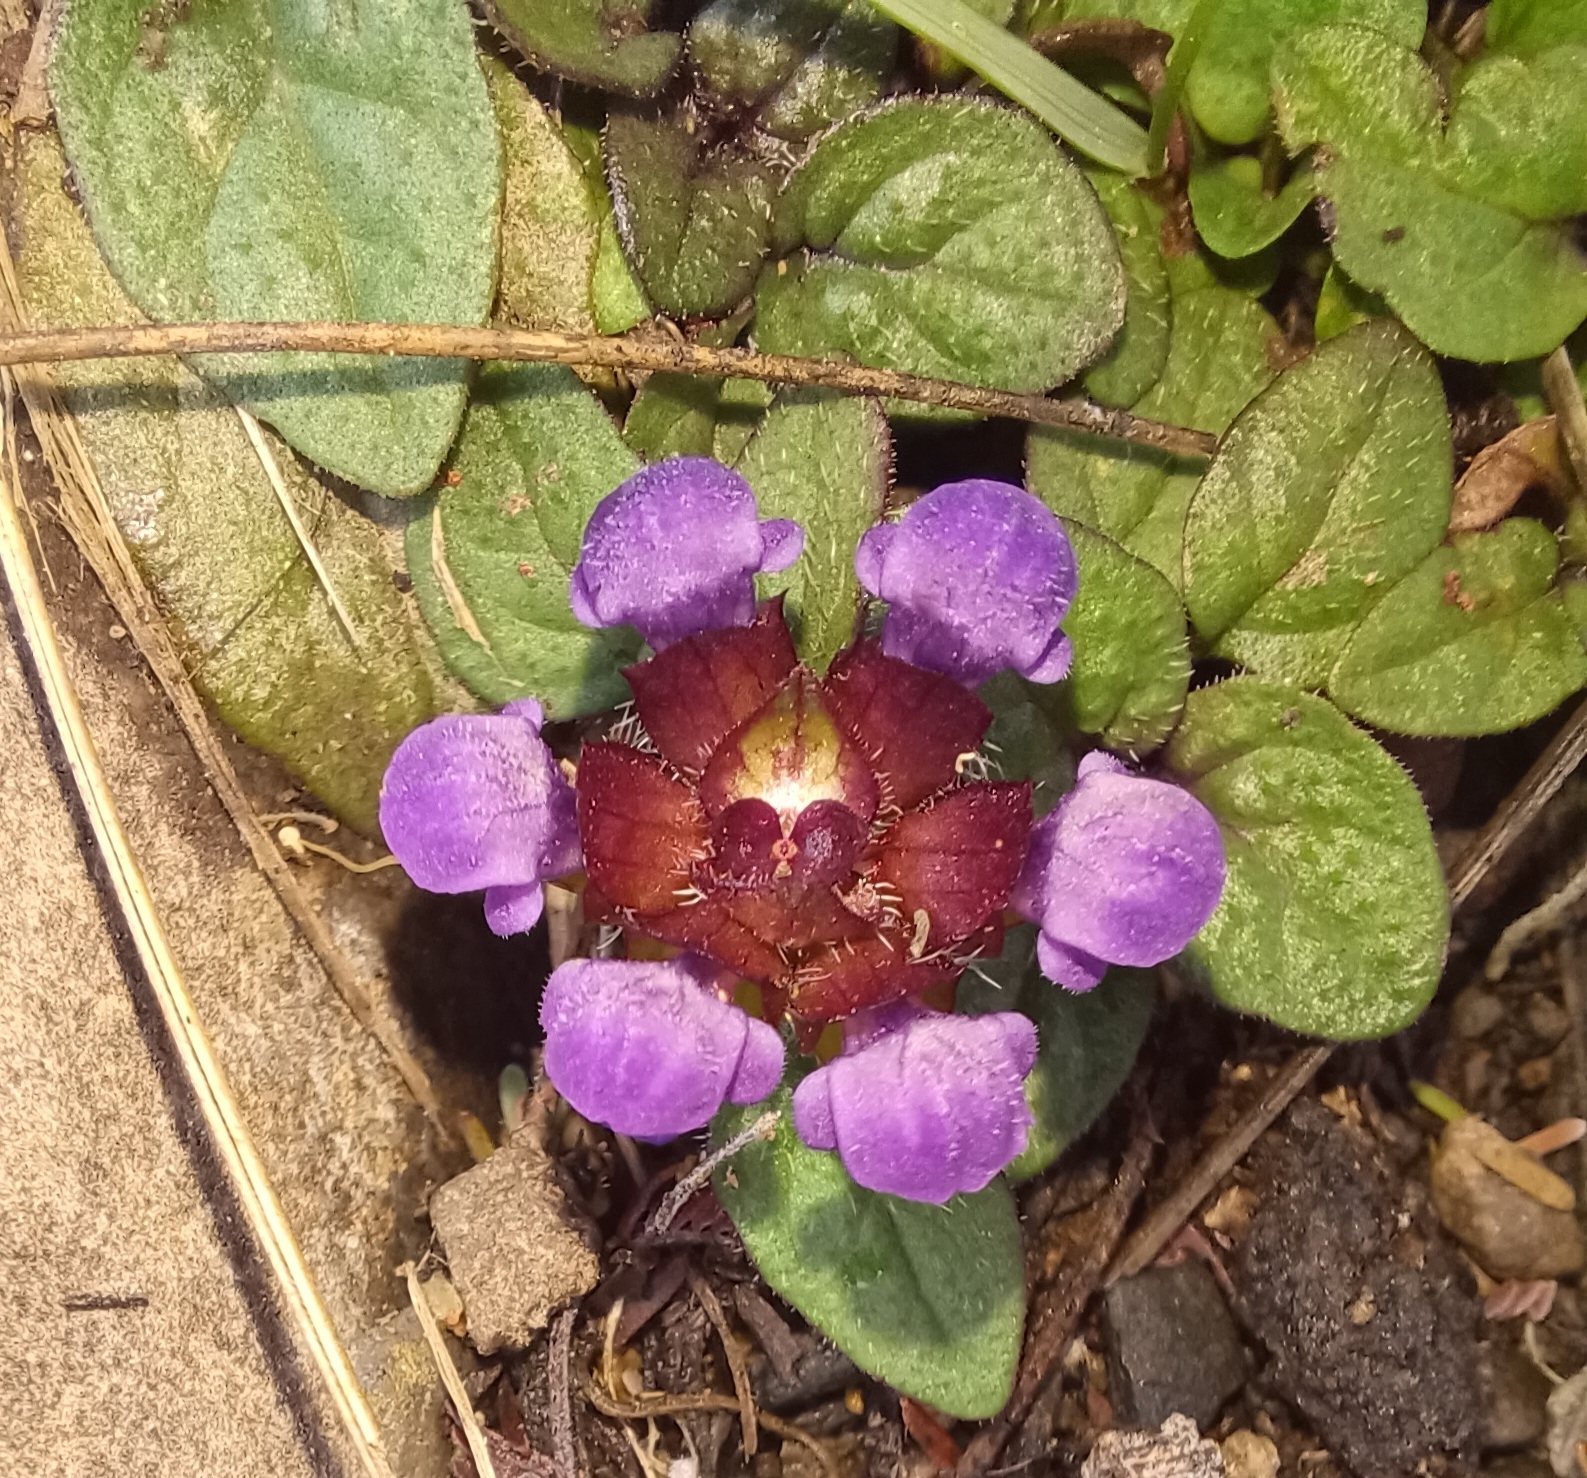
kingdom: Plantae
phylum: Tracheophyta
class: Magnoliopsida
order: Lamiales
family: Lamiaceae
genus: Prunella
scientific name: Prunella vulgaris
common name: Heal-all
